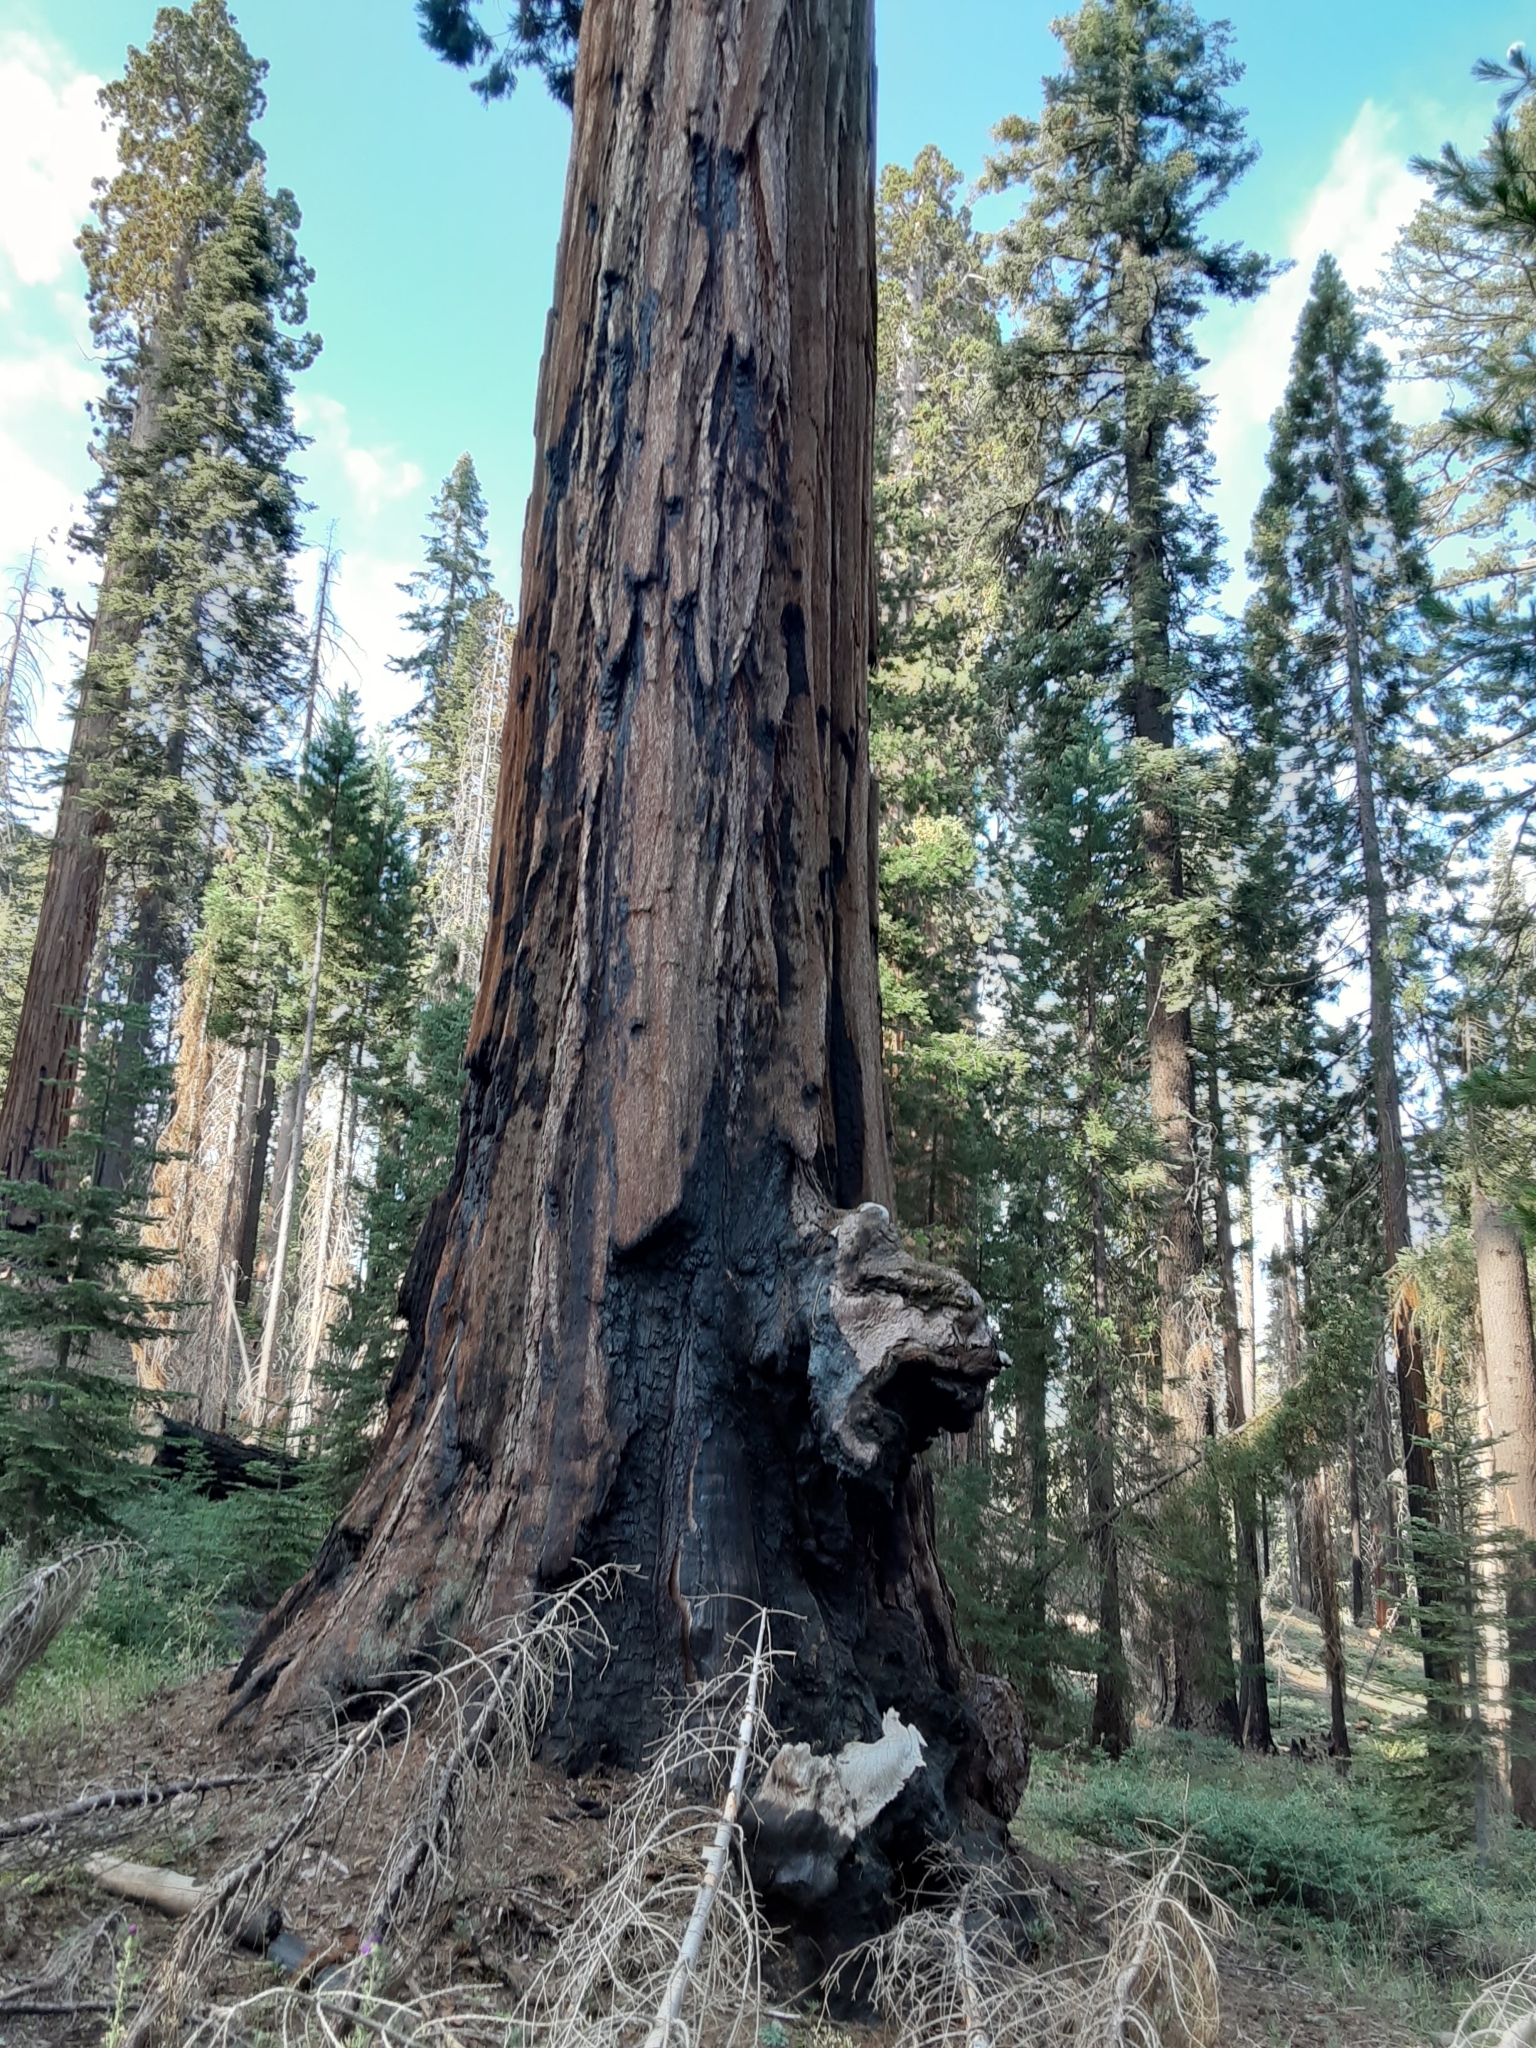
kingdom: Plantae
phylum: Tracheophyta
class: Pinopsida
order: Pinales
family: Cupressaceae
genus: Sequoiadendron
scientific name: Sequoiadendron giganteum
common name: Wellingtonia
